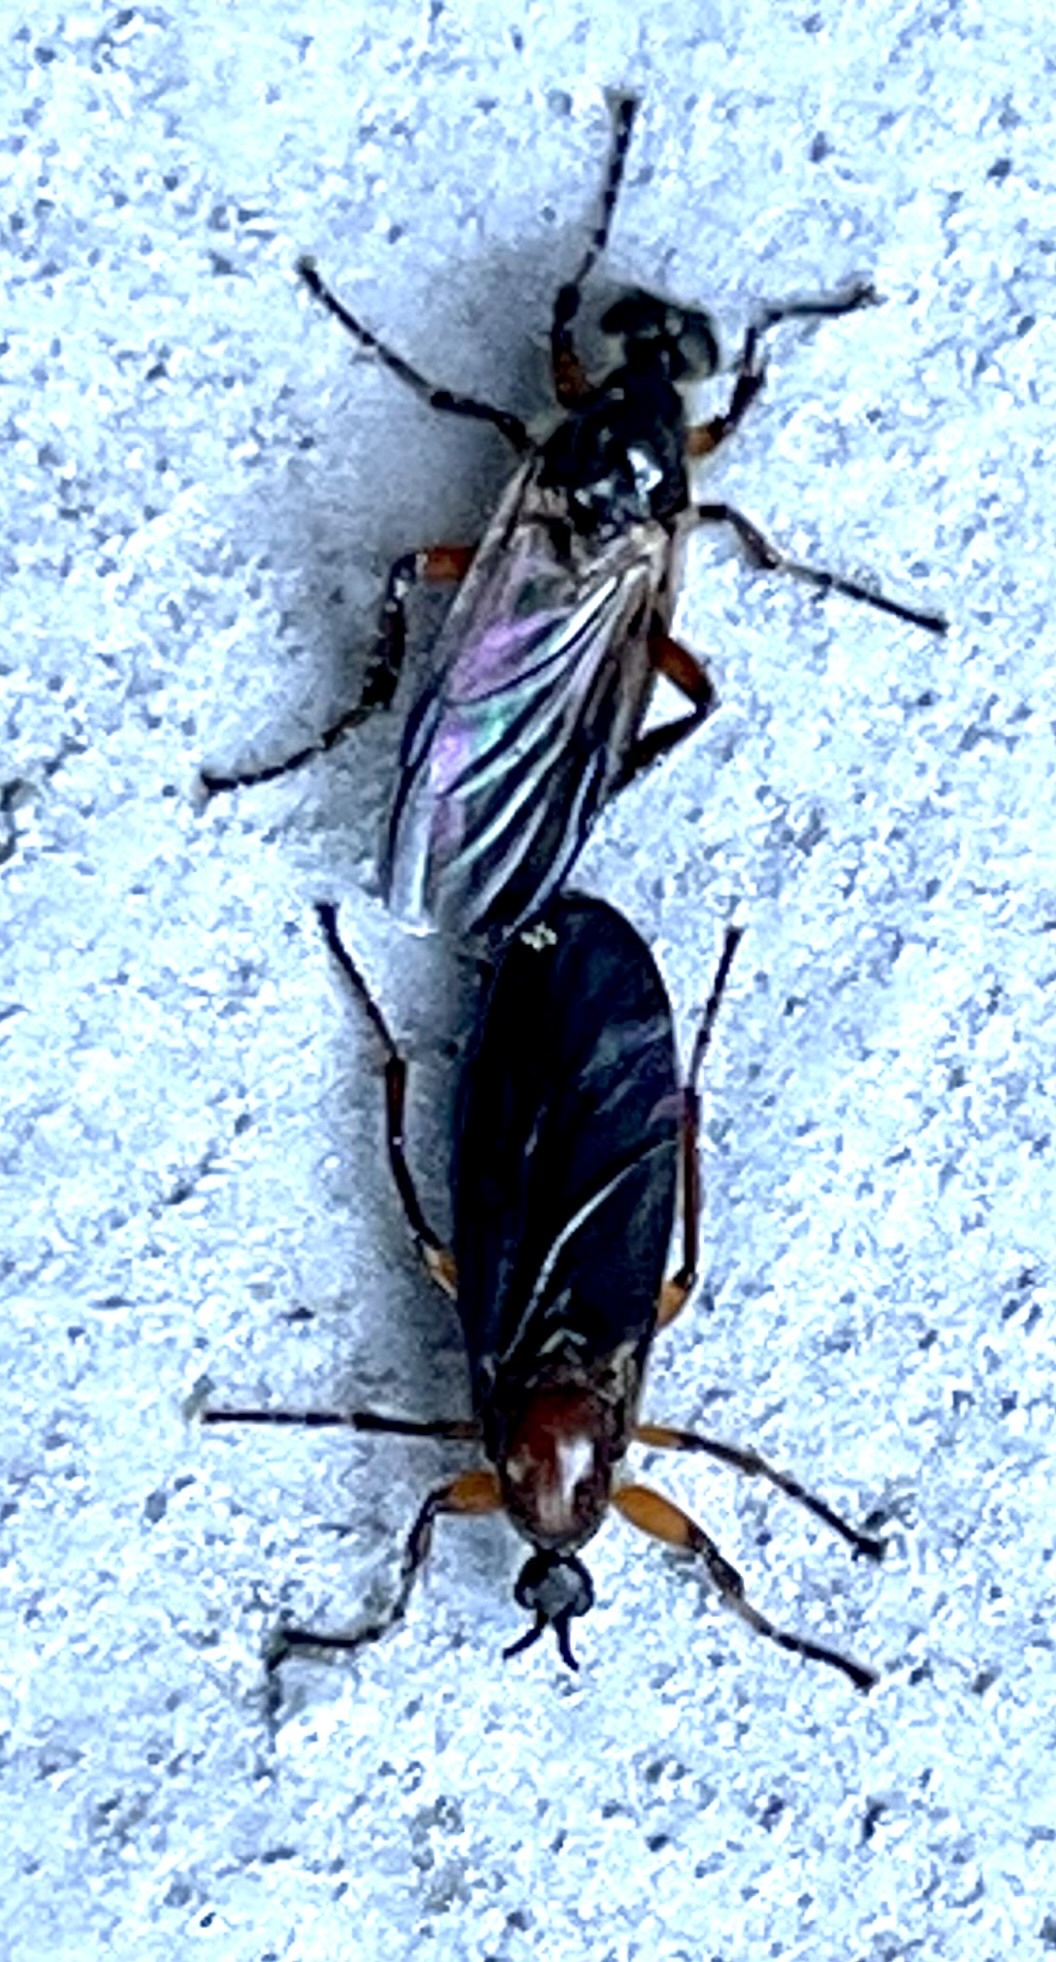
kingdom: Animalia
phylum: Arthropoda
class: Insecta
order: Diptera
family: Bibionidae
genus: Bibio
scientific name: Bibio articulatus
